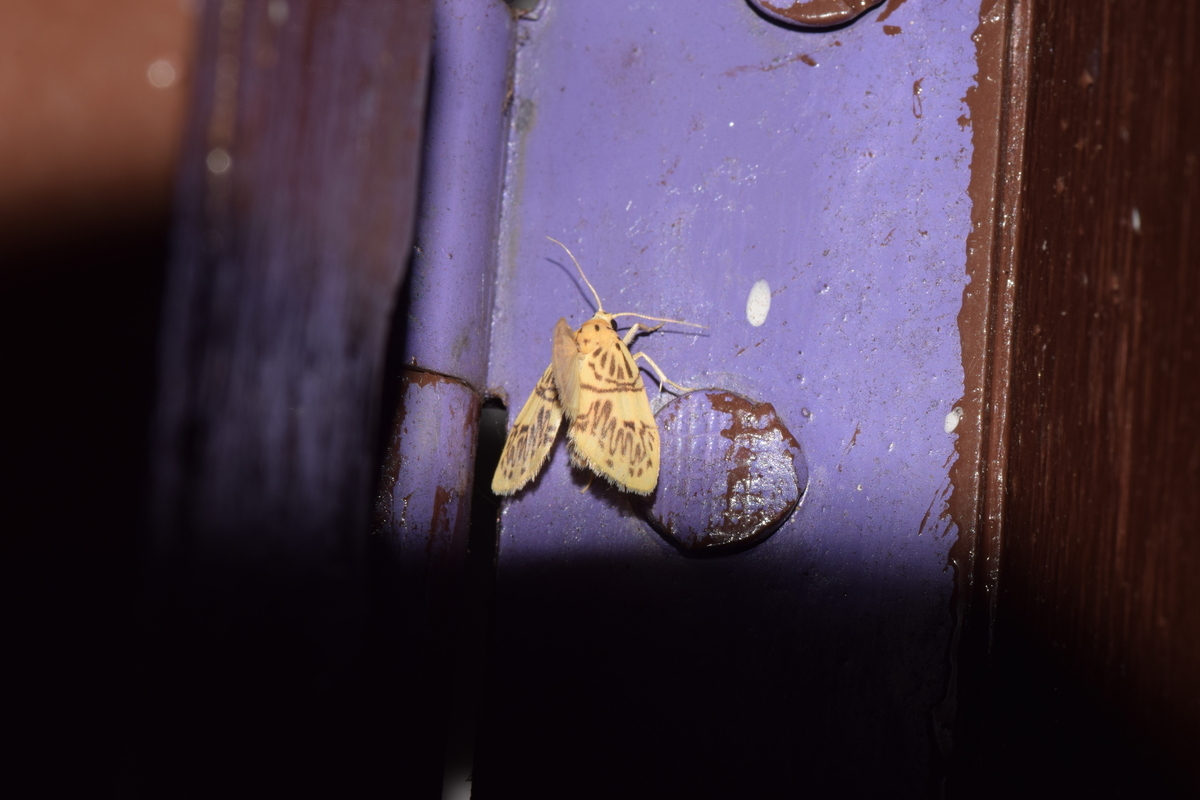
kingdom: Animalia
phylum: Arthropoda
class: Insecta
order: Lepidoptera
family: Erebidae
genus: Barsipennis
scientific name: Barsipennis joshii
